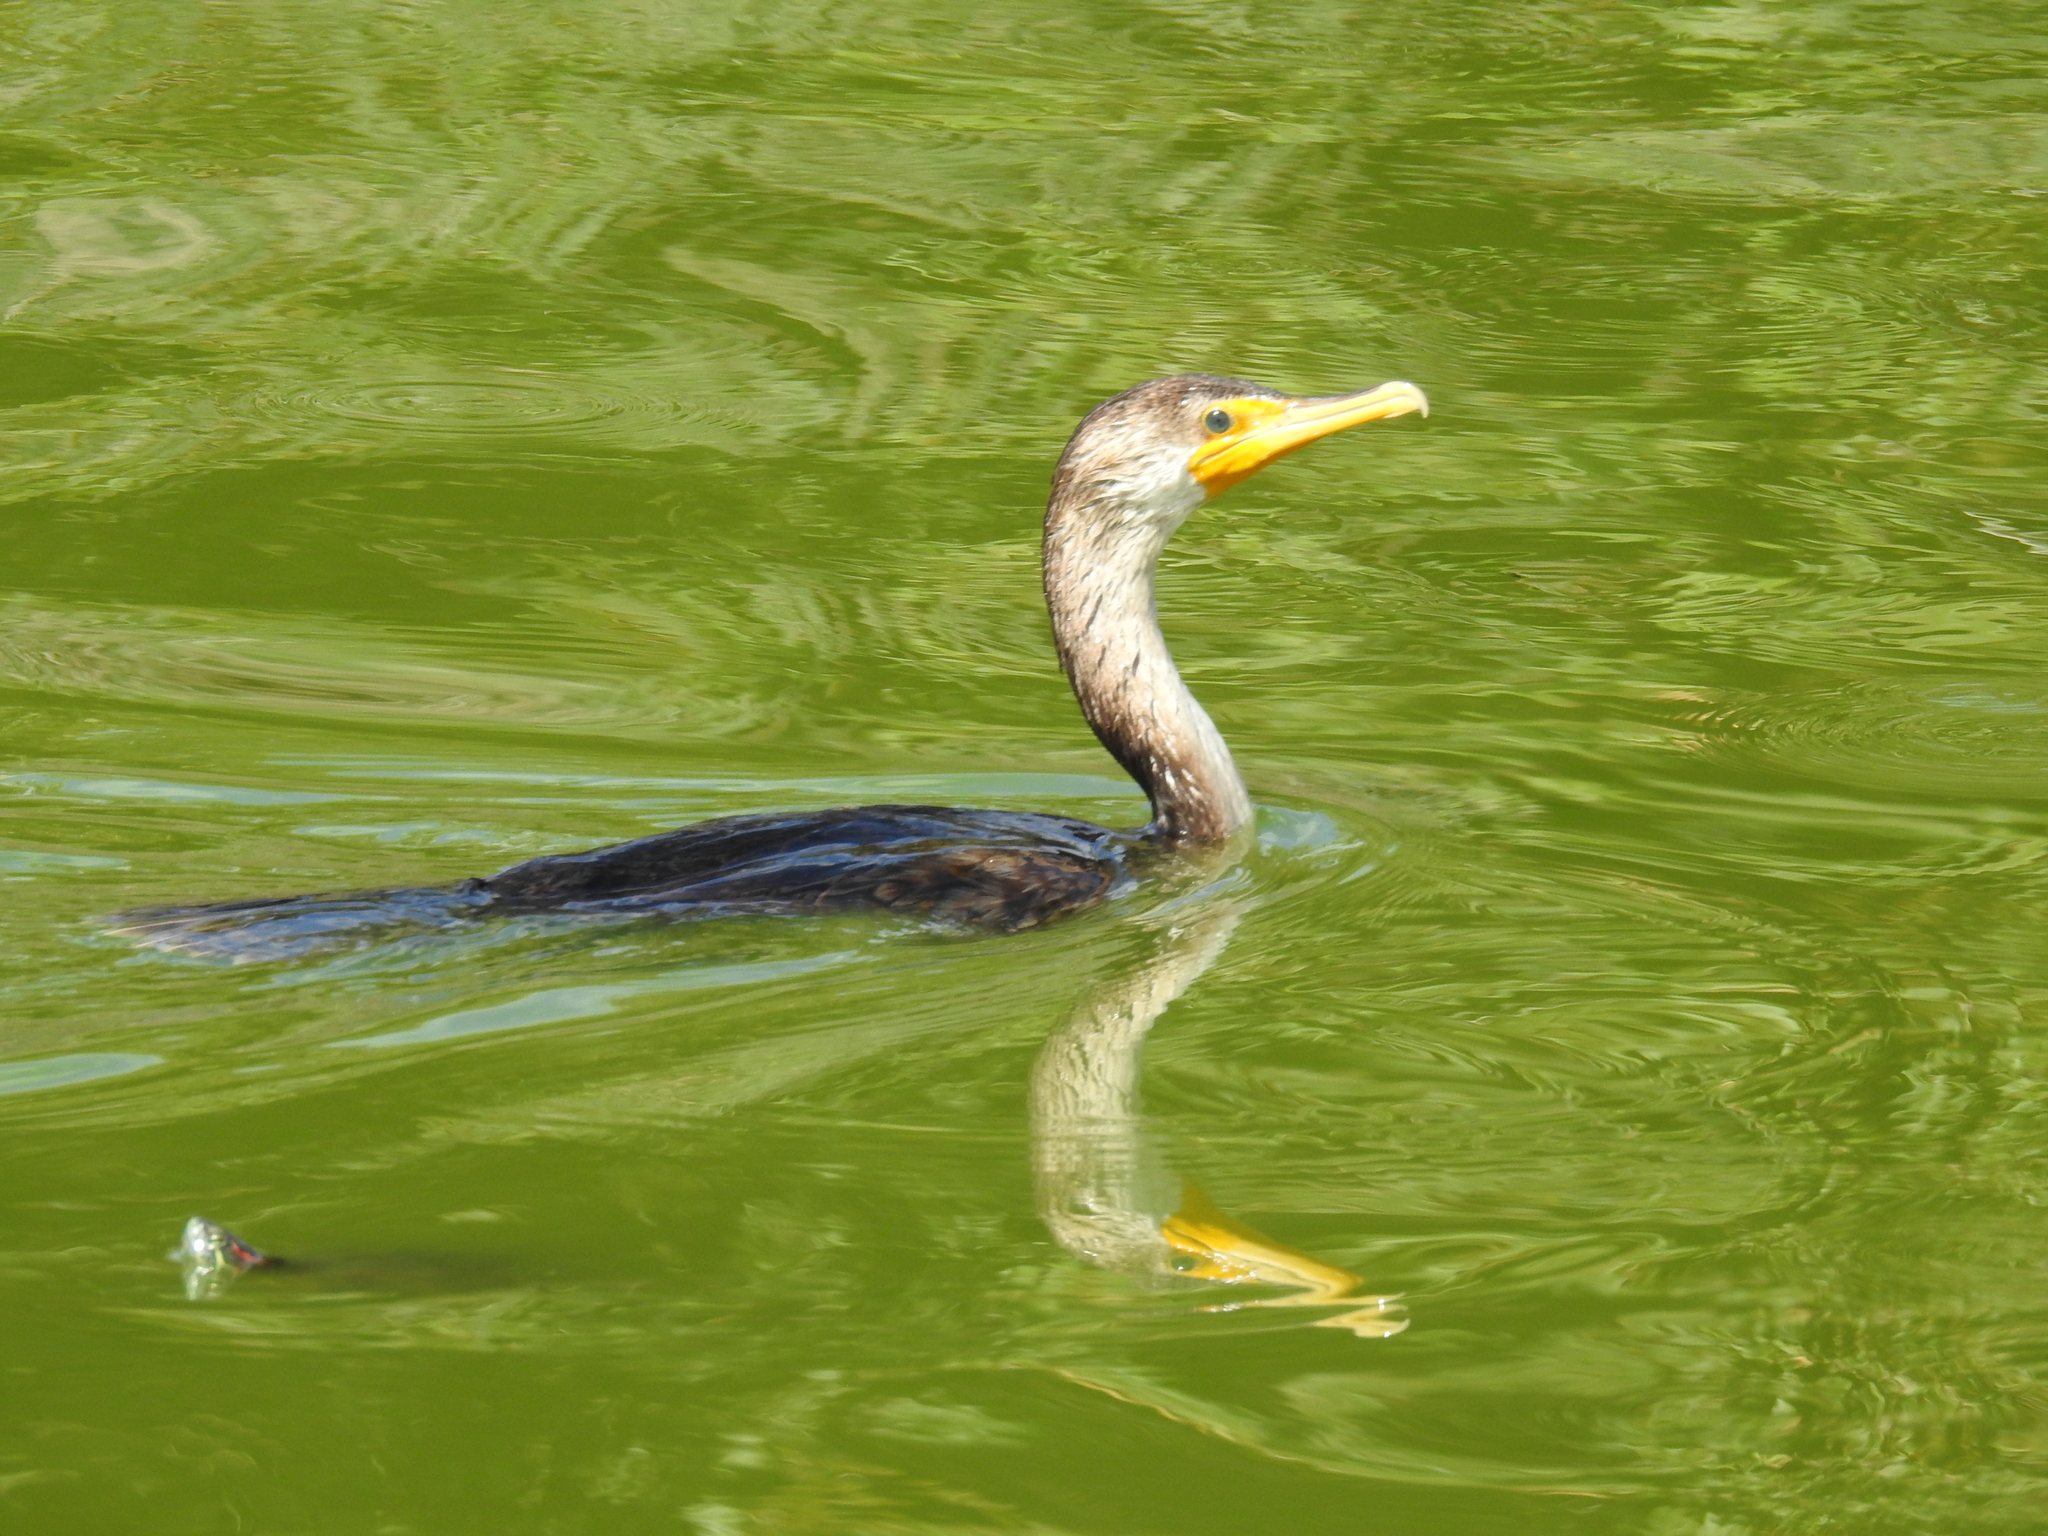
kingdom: Animalia
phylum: Chordata
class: Aves
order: Suliformes
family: Phalacrocoracidae
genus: Phalacrocorax
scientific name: Phalacrocorax auritus
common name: Double-crested cormorant
